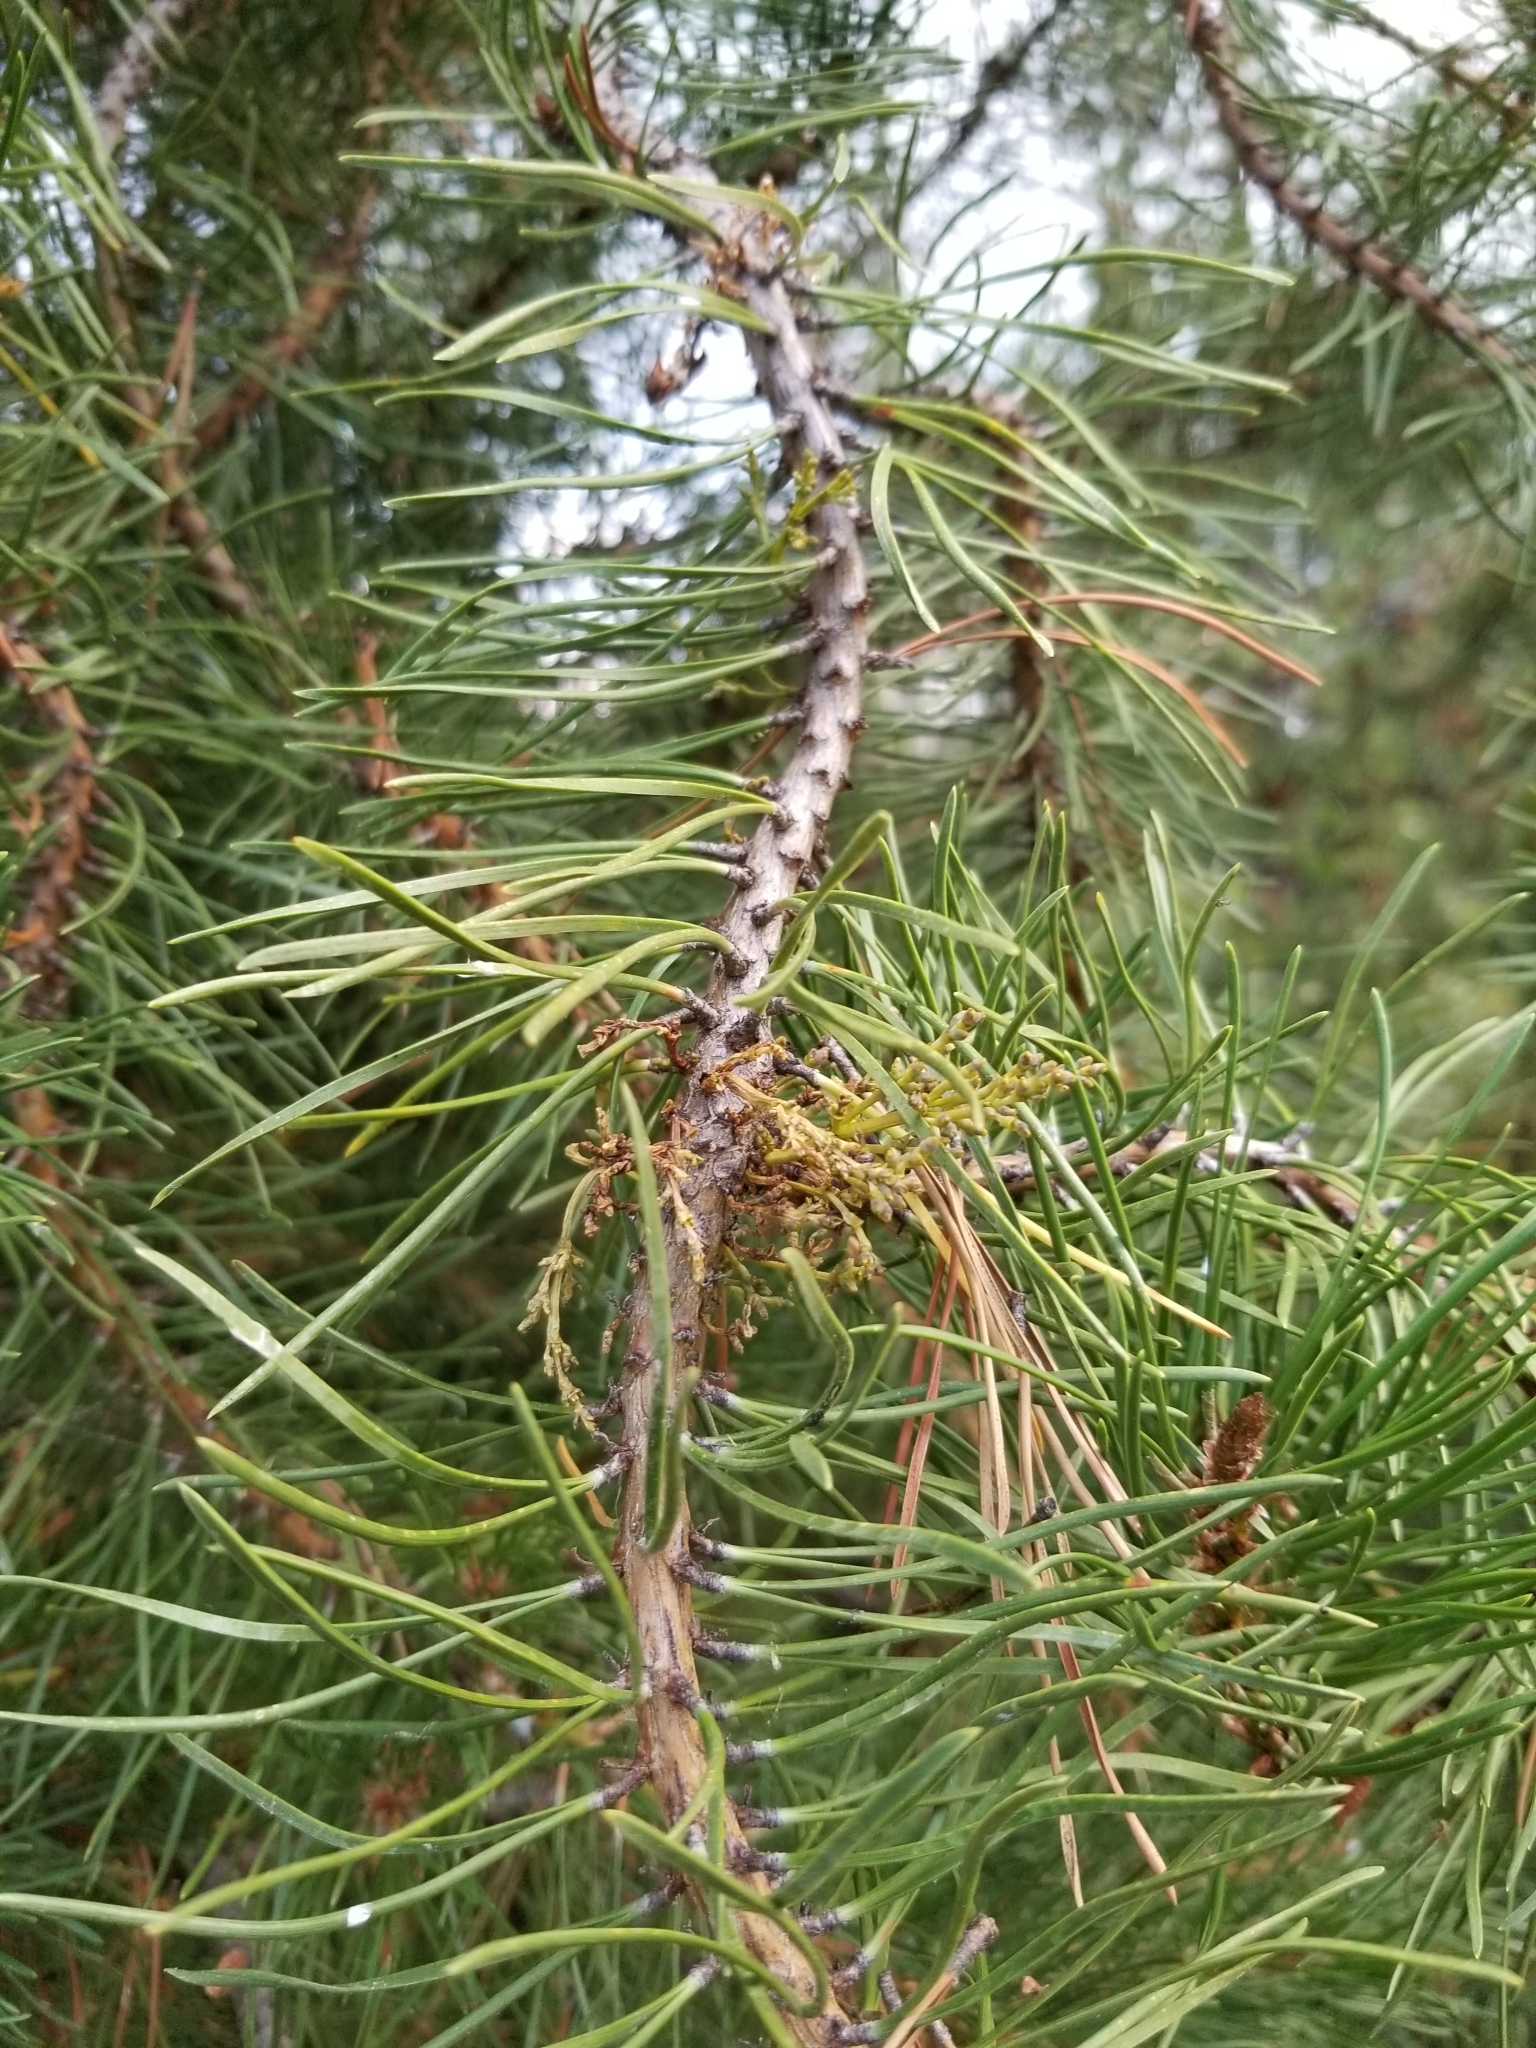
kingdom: Plantae
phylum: Tracheophyta
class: Magnoliopsida
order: Santalales
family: Viscaceae
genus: Arceuthobium
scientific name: Arceuthobium americanum
